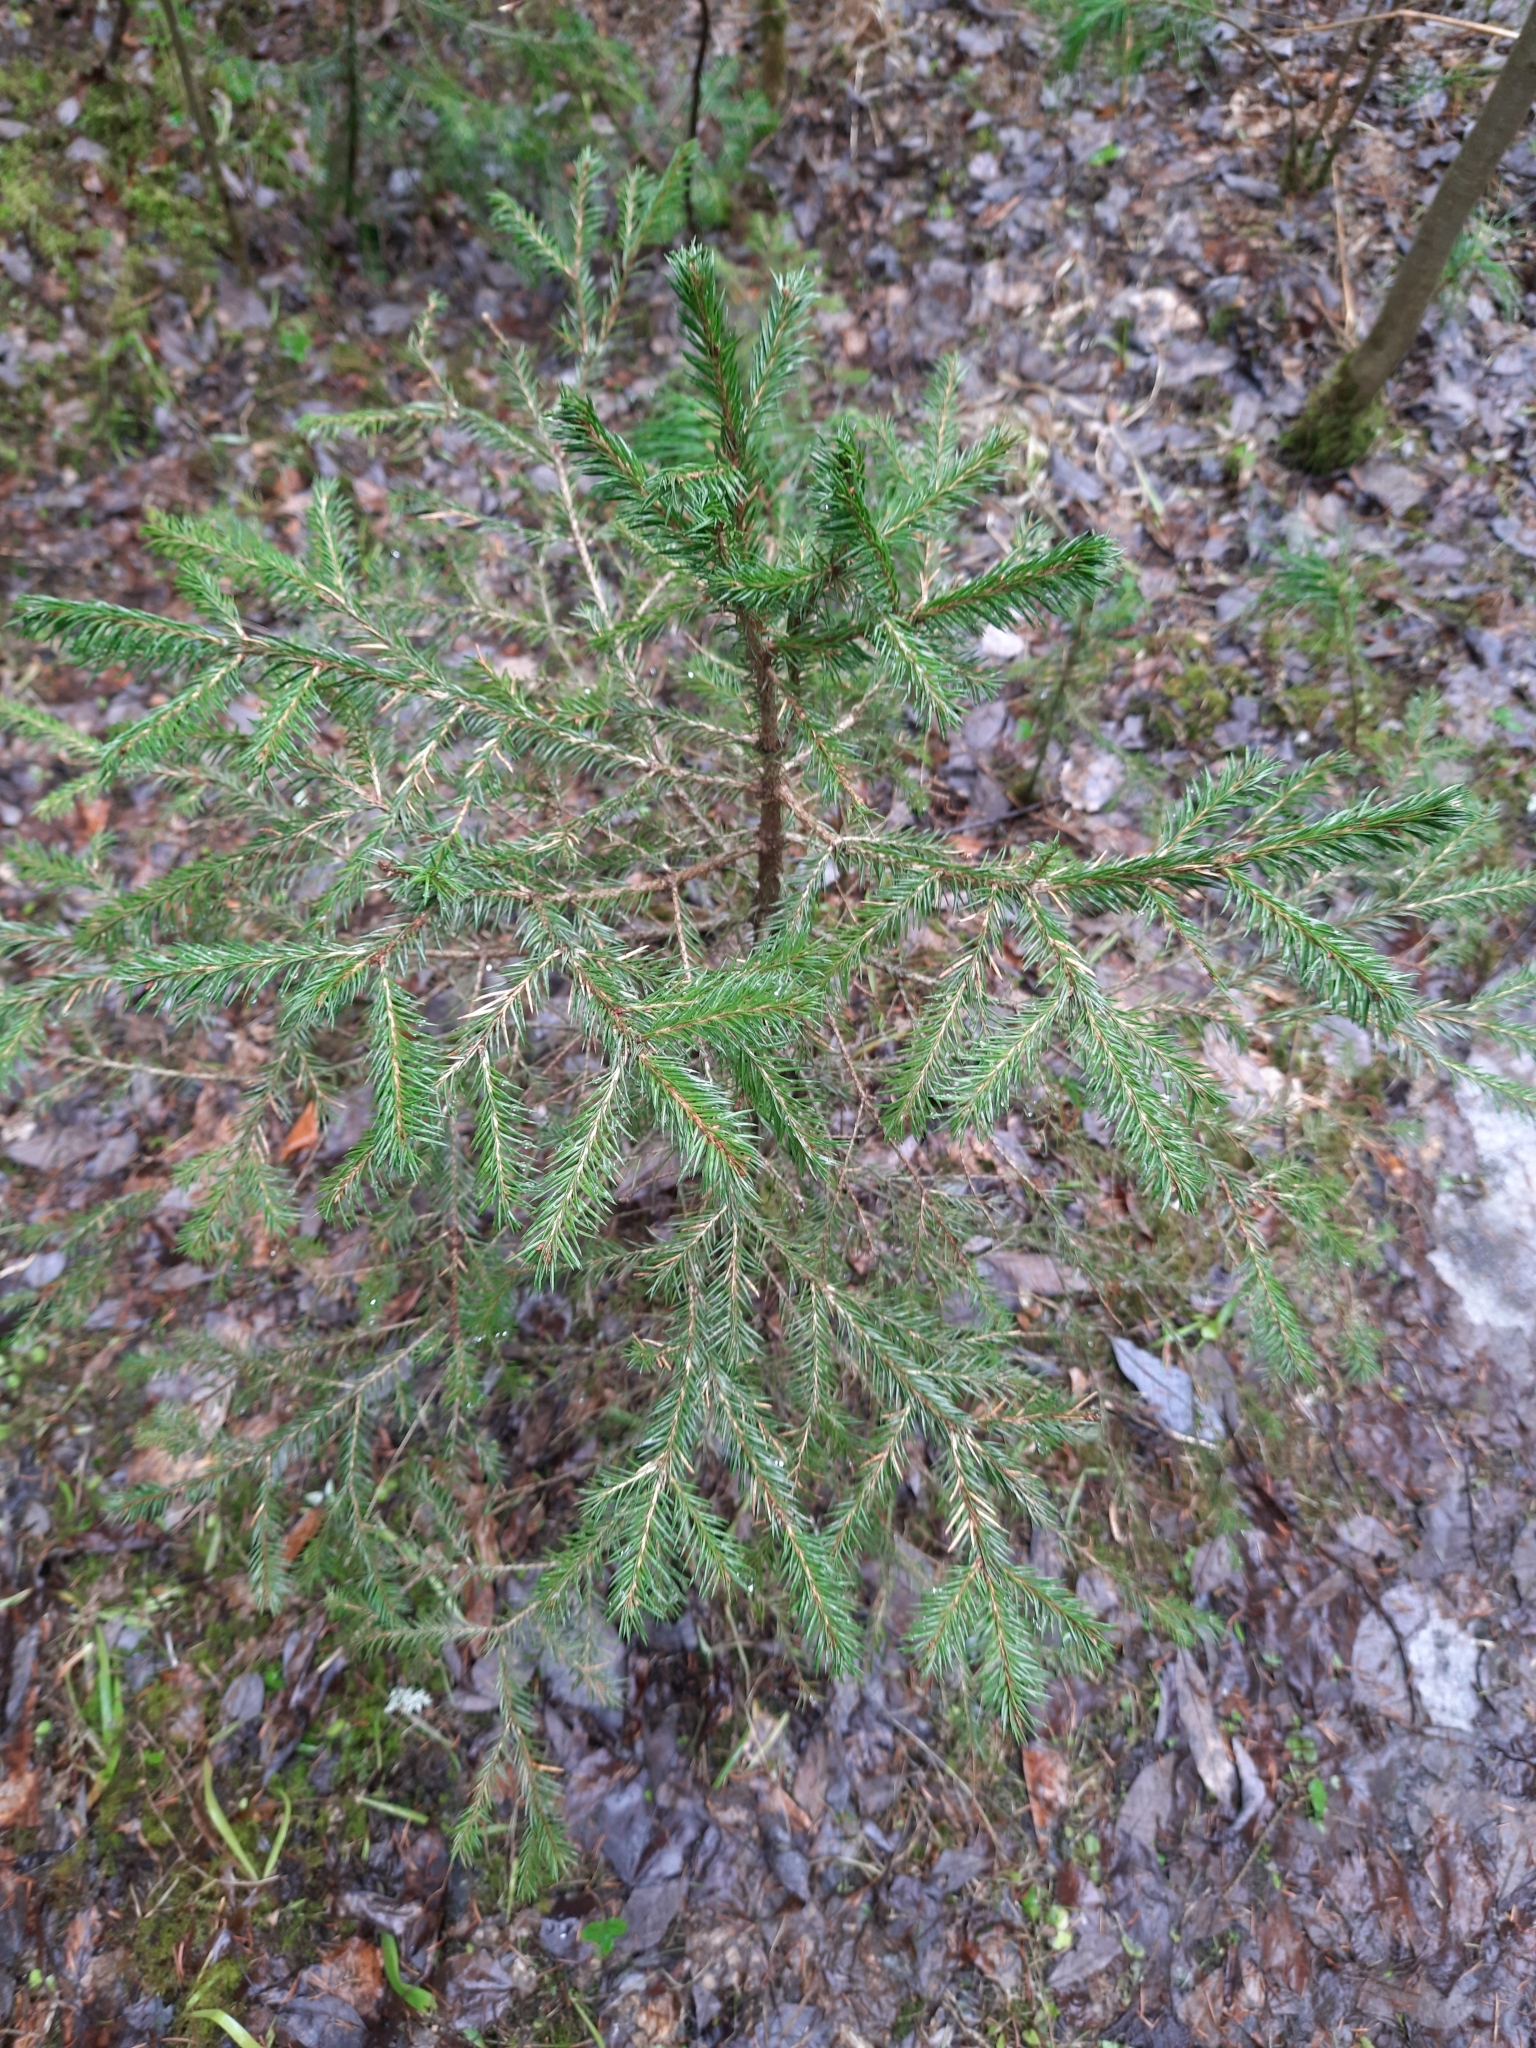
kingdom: Plantae
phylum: Tracheophyta
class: Pinopsida
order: Pinales
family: Pinaceae
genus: Picea
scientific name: Picea obovata
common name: Siberian spruce
